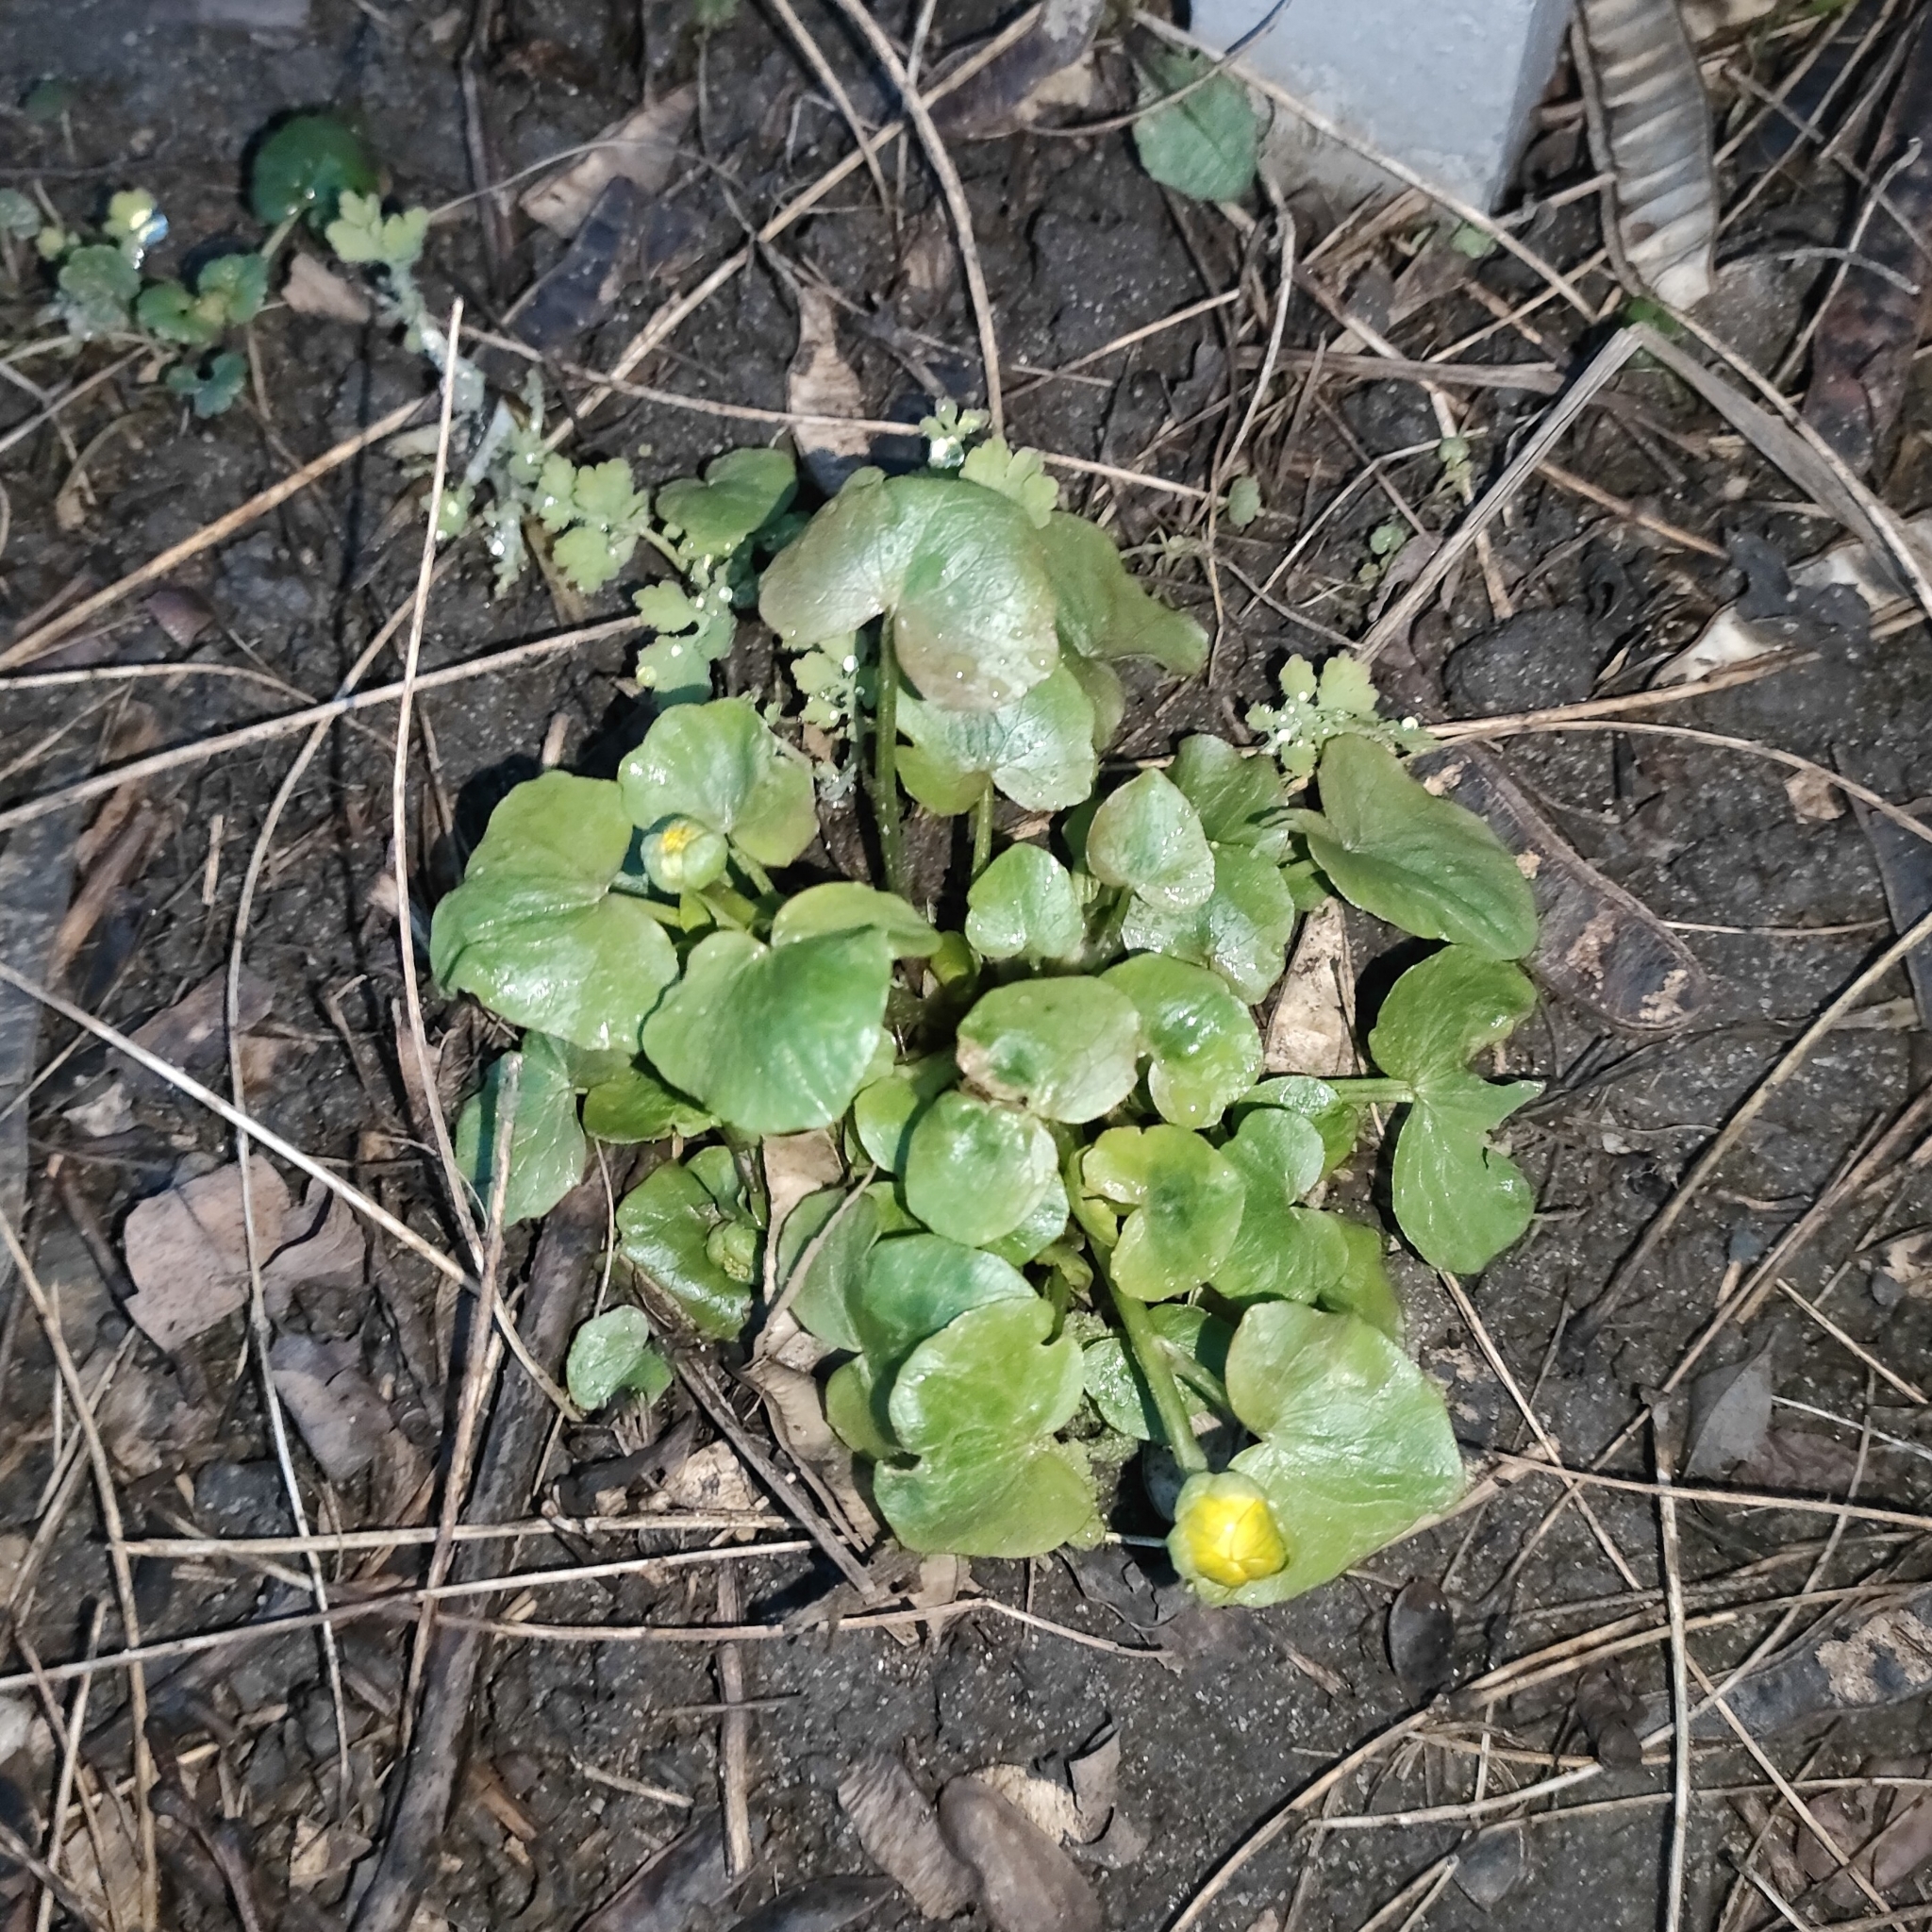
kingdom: Plantae
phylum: Tracheophyta
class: Magnoliopsida
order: Ranunculales
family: Ranunculaceae
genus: Ficaria
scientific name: Ficaria verna
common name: Lesser celandine
